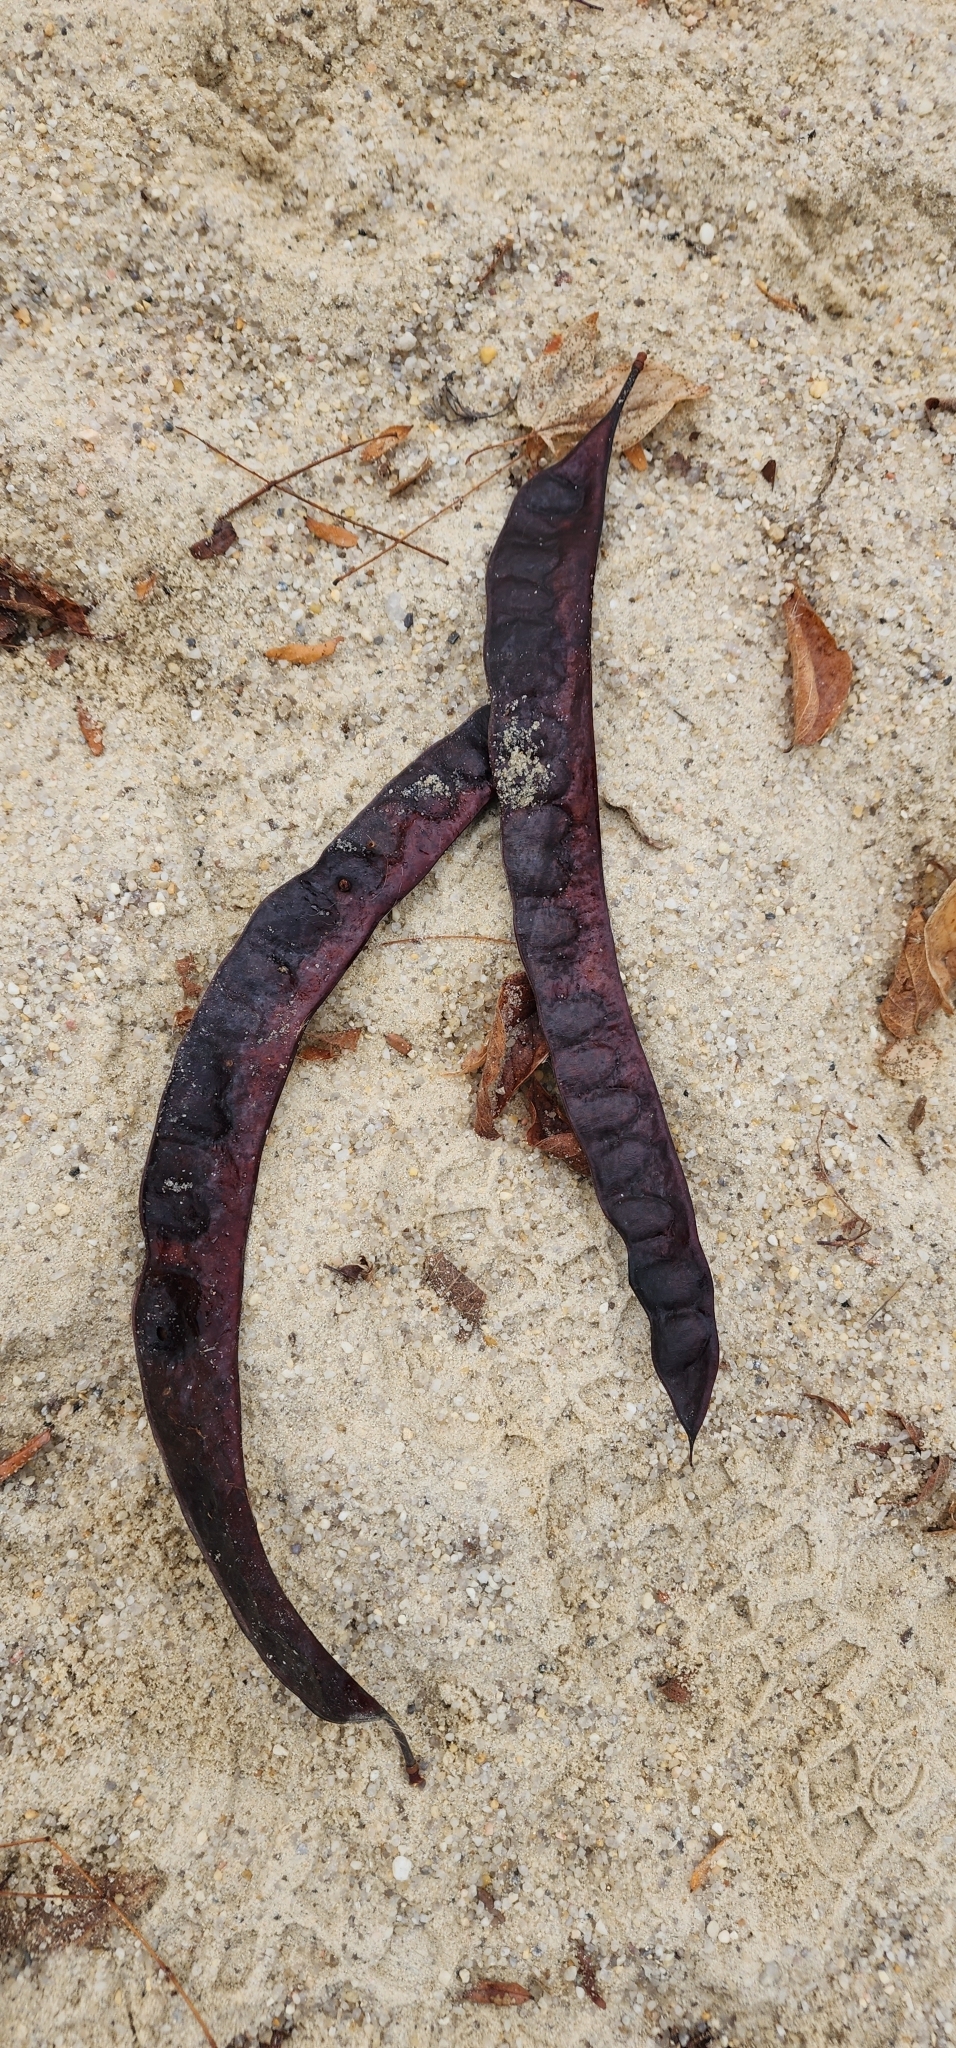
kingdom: Plantae
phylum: Tracheophyta
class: Magnoliopsida
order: Fabales
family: Fabaceae
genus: Gleditsia
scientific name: Gleditsia triacanthos
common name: Common honeylocust
